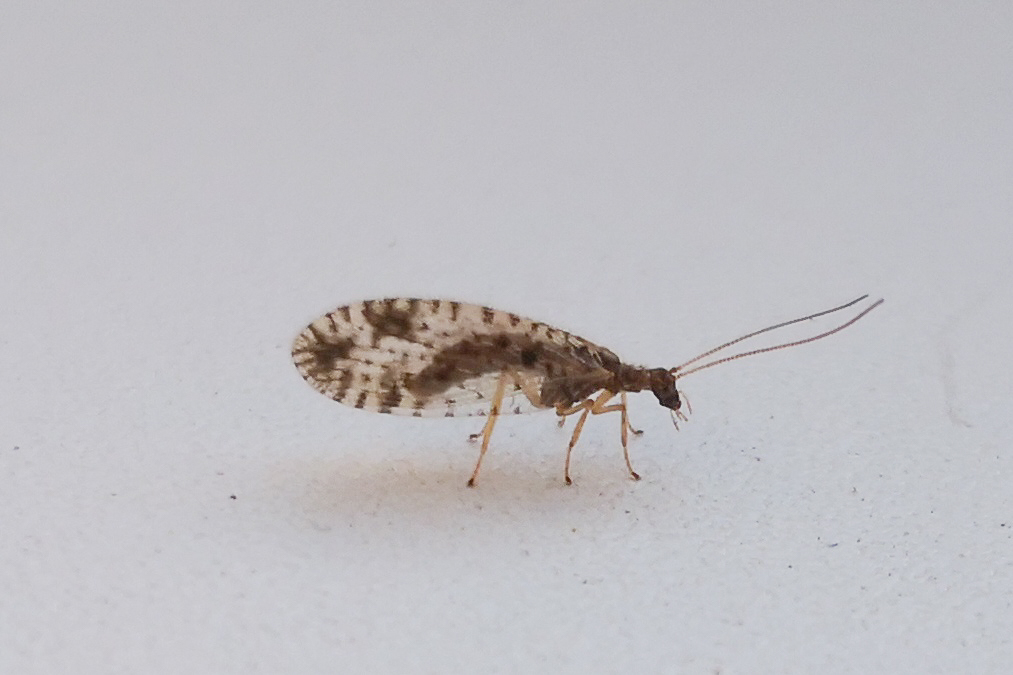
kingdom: Animalia
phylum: Arthropoda
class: Insecta
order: Neuroptera
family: Hemerobiidae
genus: Micromus
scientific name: Micromus variegatus
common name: Brown lacewing
